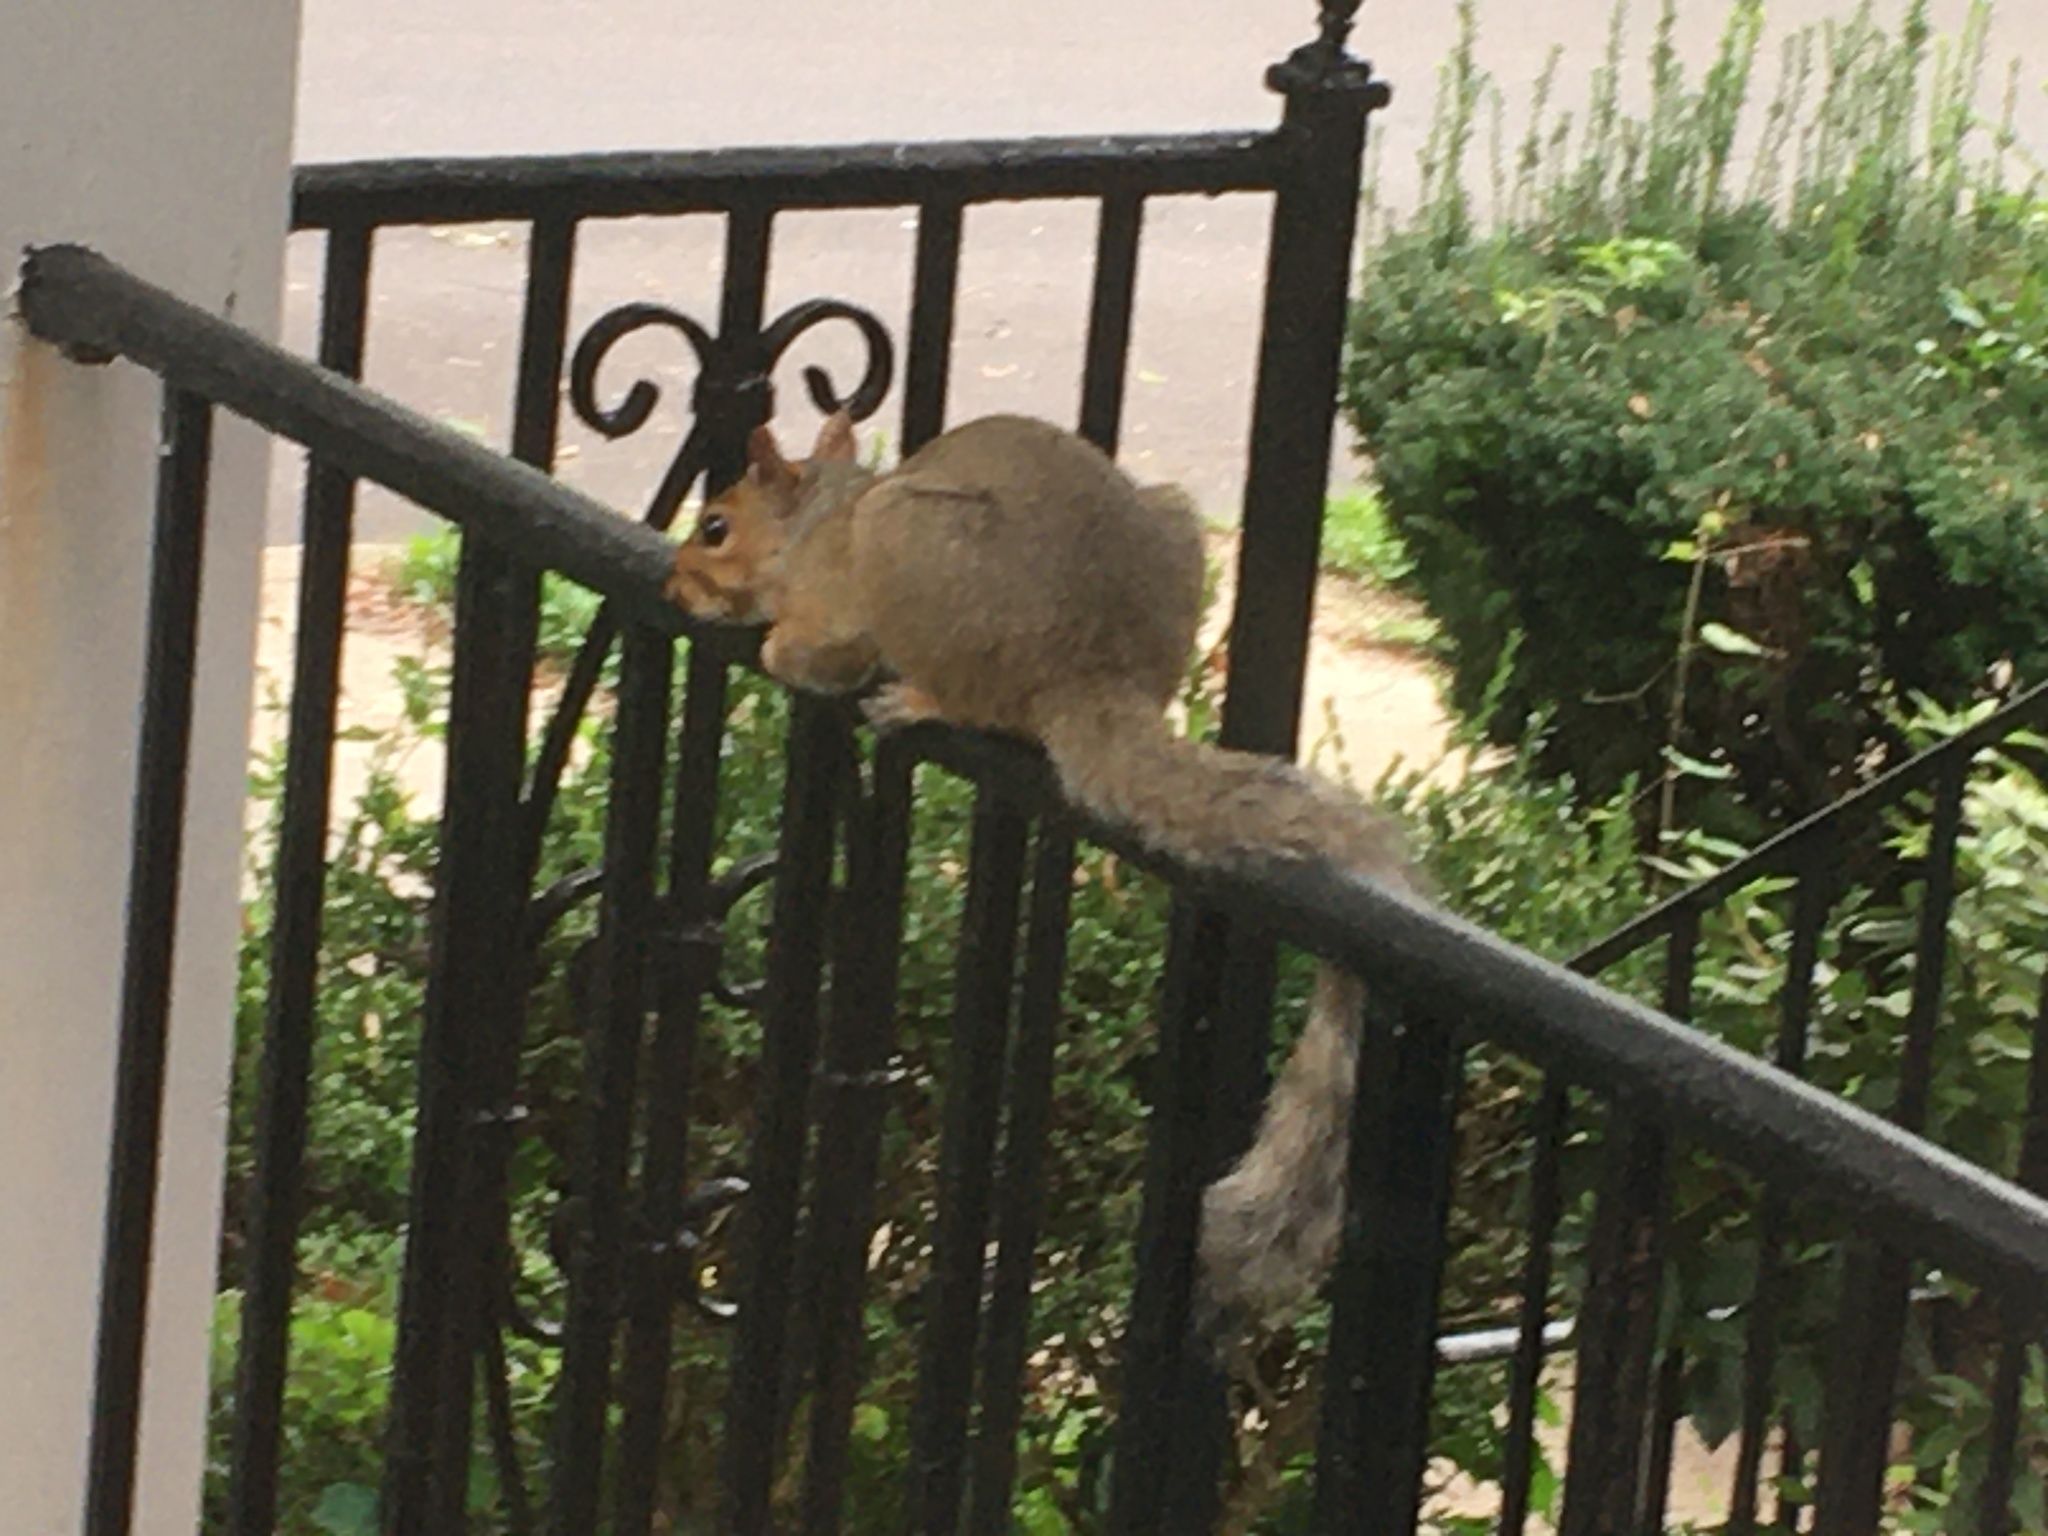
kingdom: Animalia
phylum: Chordata
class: Mammalia
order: Rodentia
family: Sciuridae
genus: Sciurus
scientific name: Sciurus carolinensis
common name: Eastern gray squirrel
